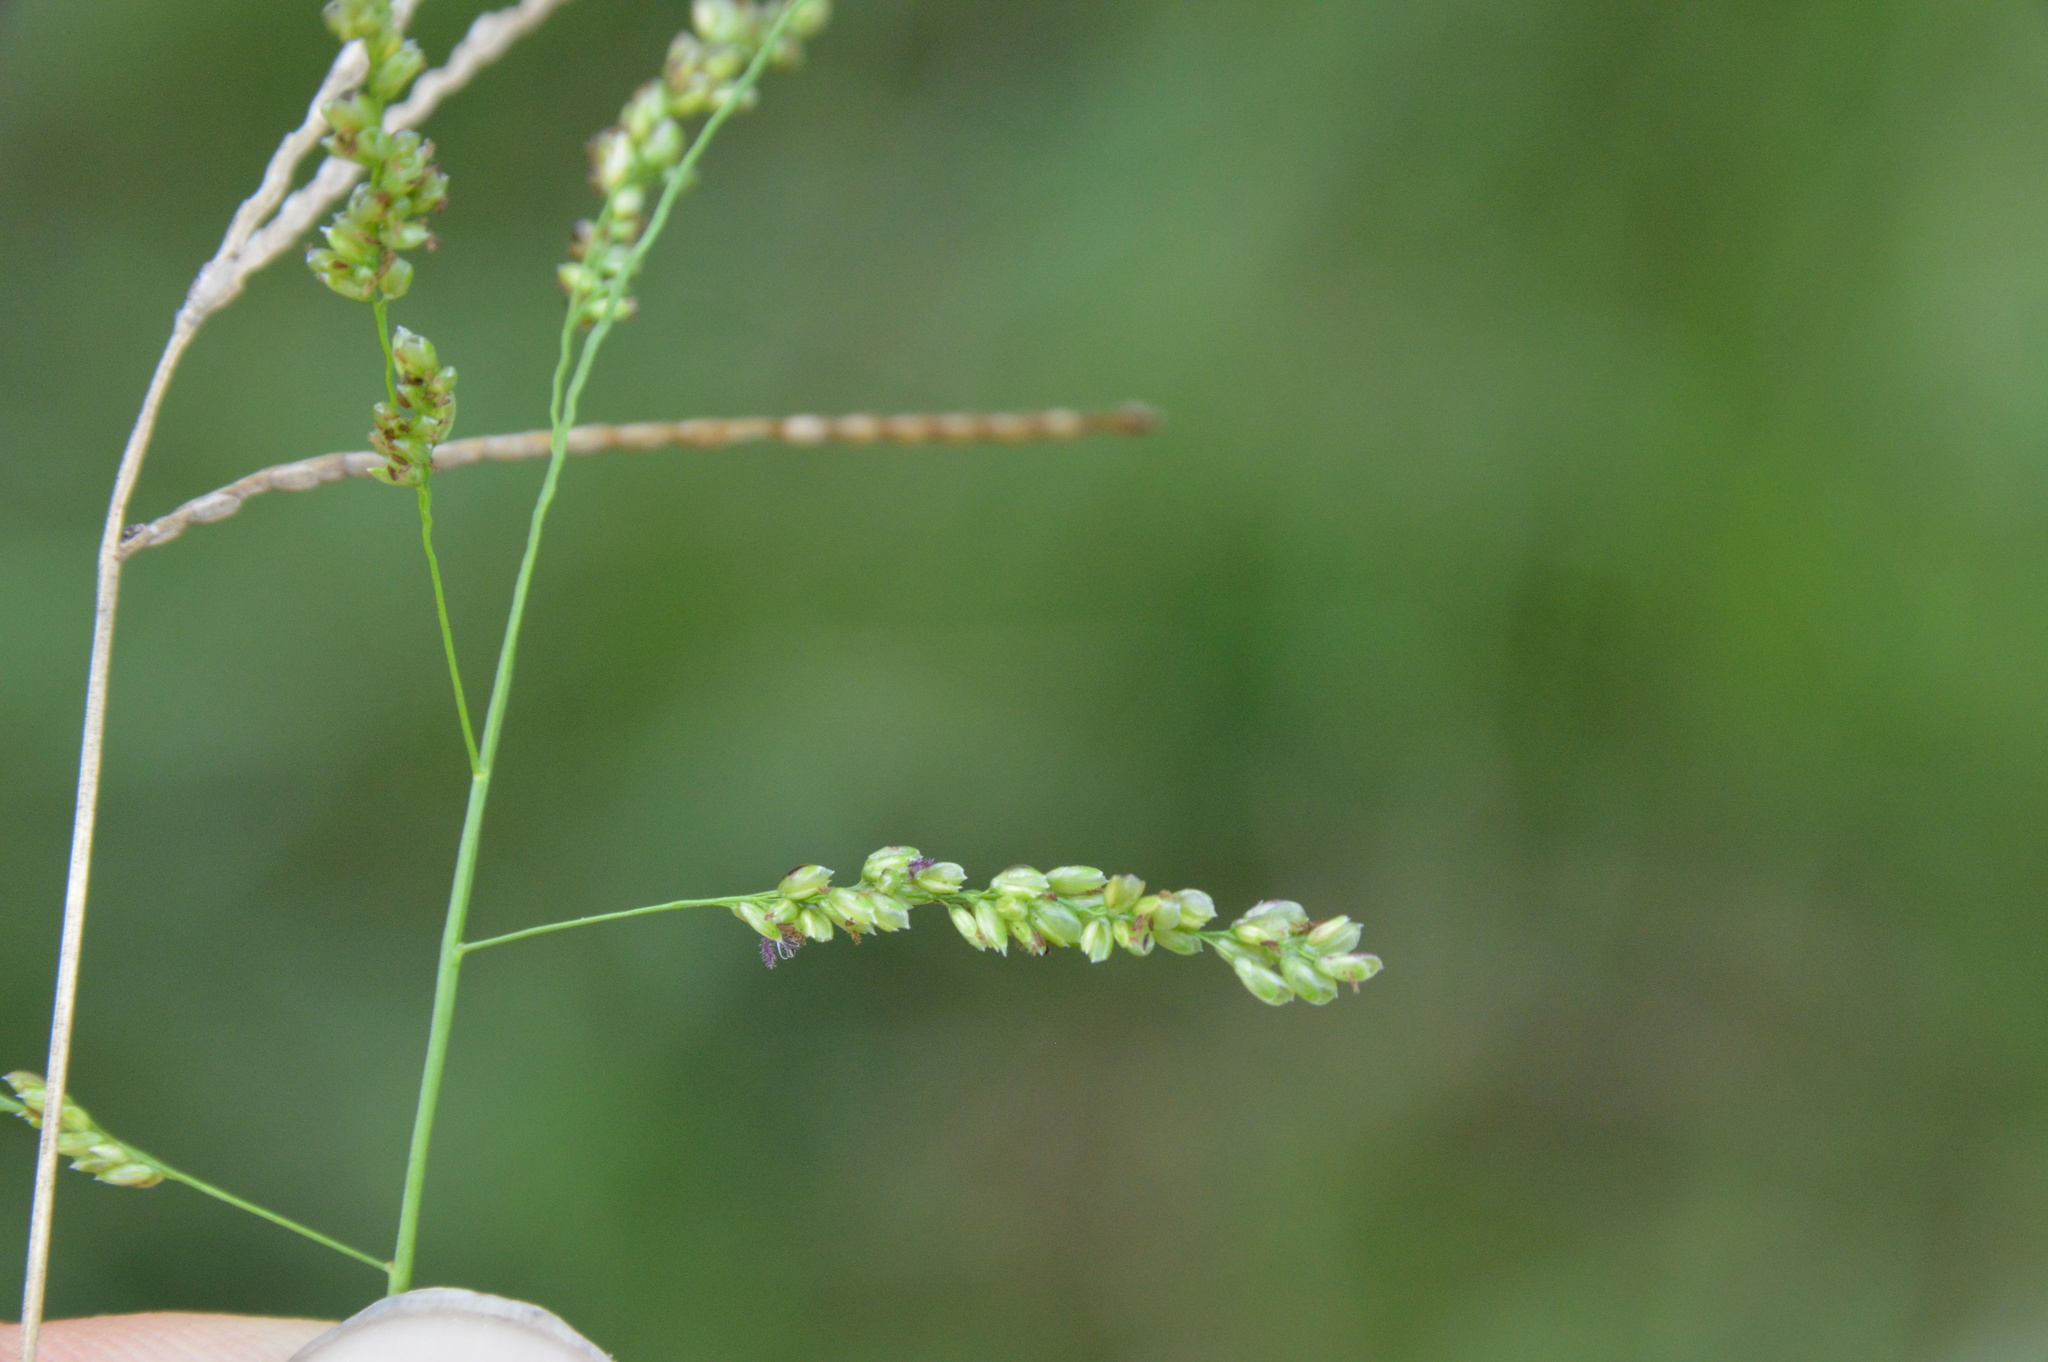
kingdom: Plantae
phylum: Tracheophyta
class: Liliopsida
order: Poales
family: Poaceae
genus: Steinchisma
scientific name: Steinchisma hians
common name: Gaping panic grass
